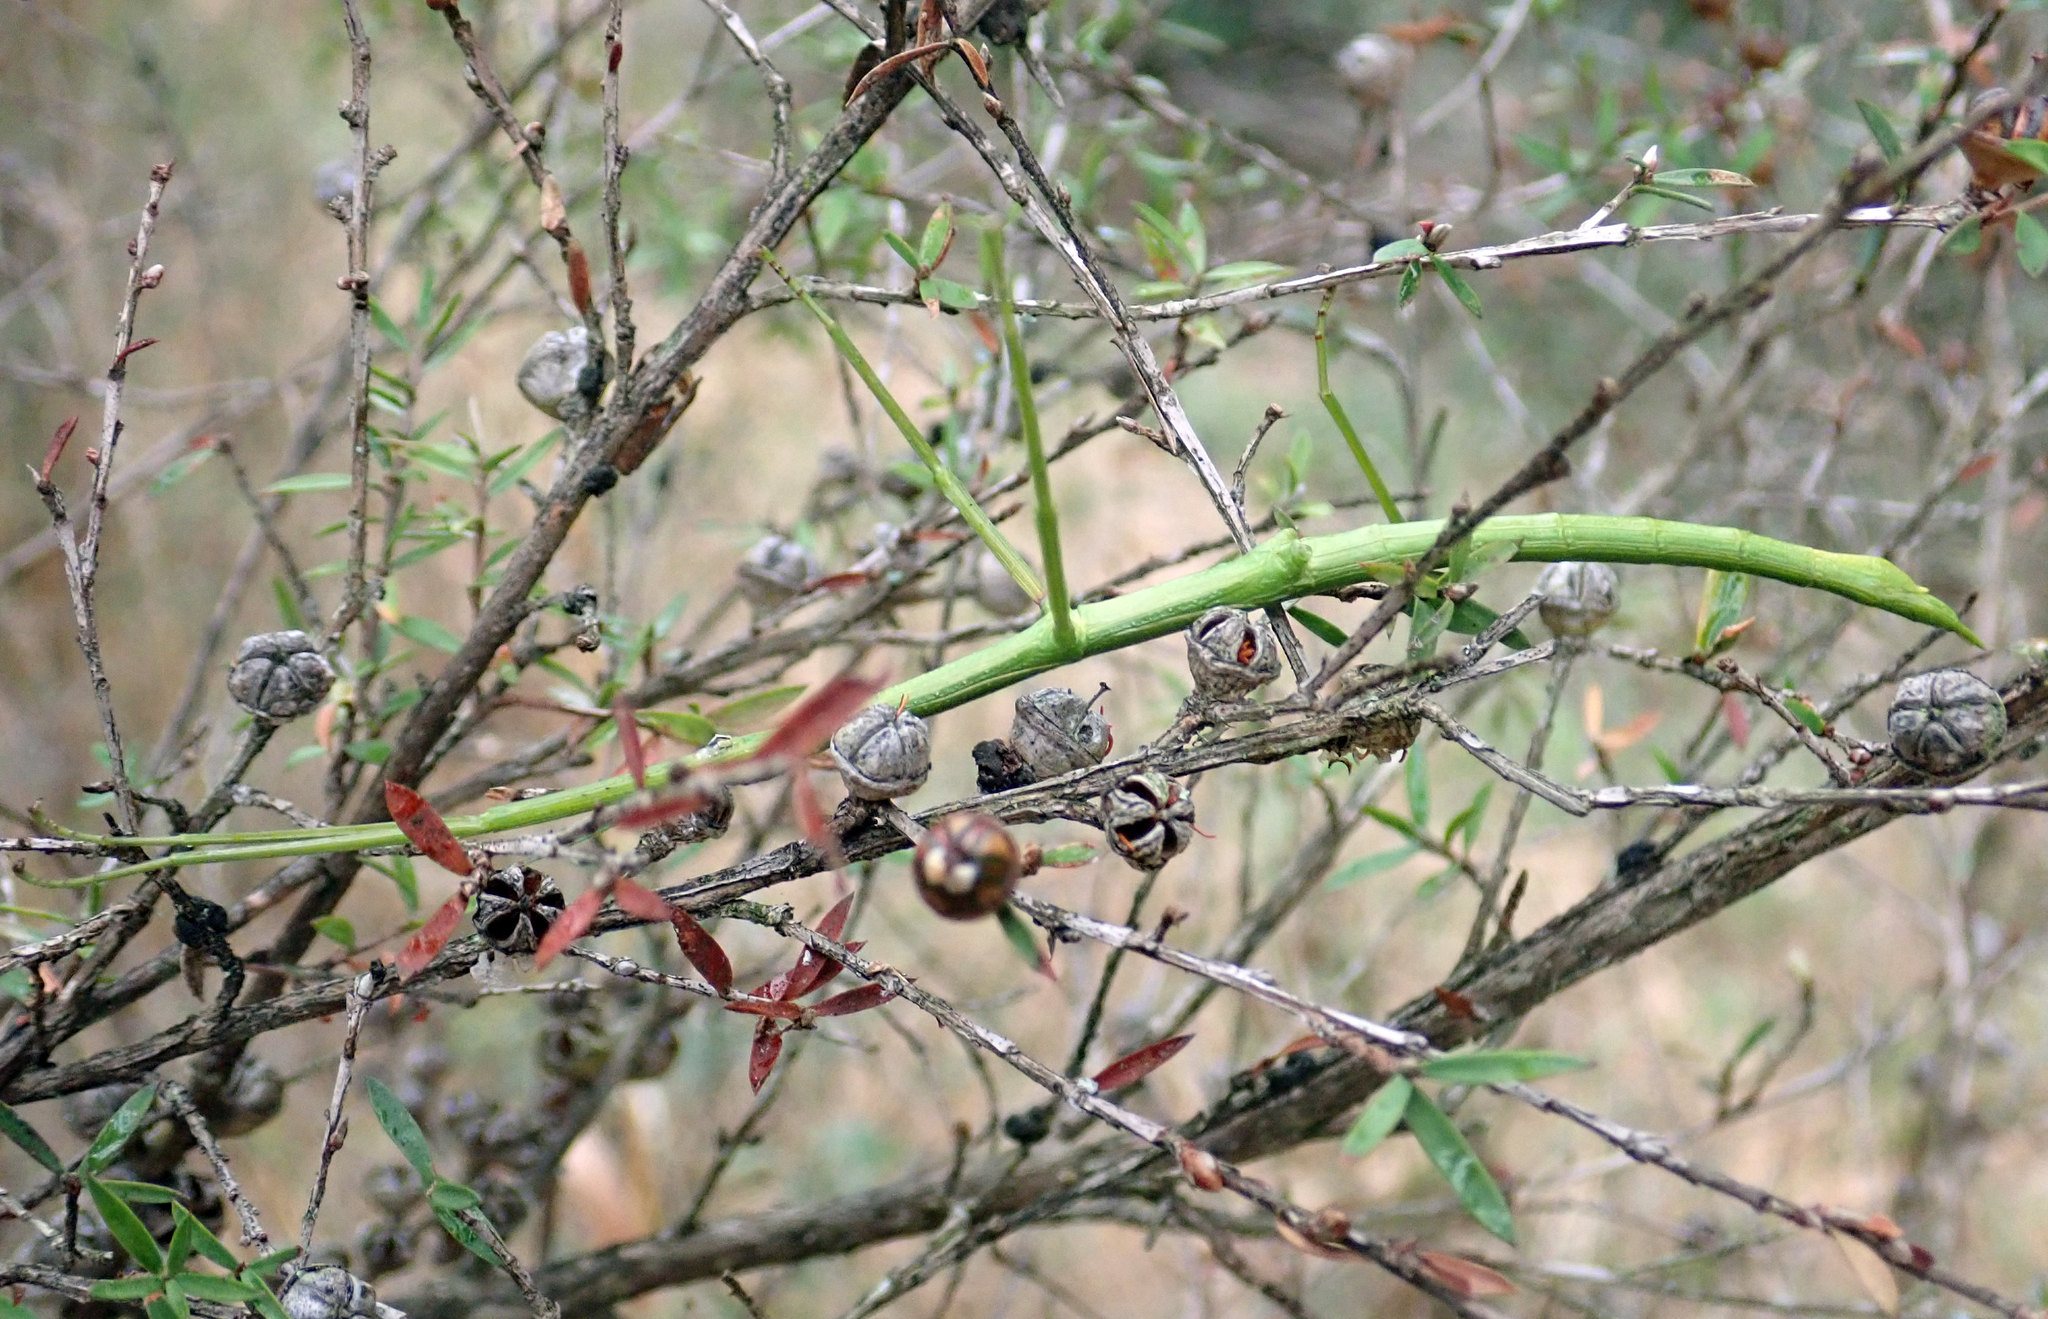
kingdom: Animalia
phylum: Arthropoda
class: Insecta
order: Phasmida
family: Phasmatidae
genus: Clitarchus
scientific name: Clitarchus hookeri
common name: Smooth stick insect
